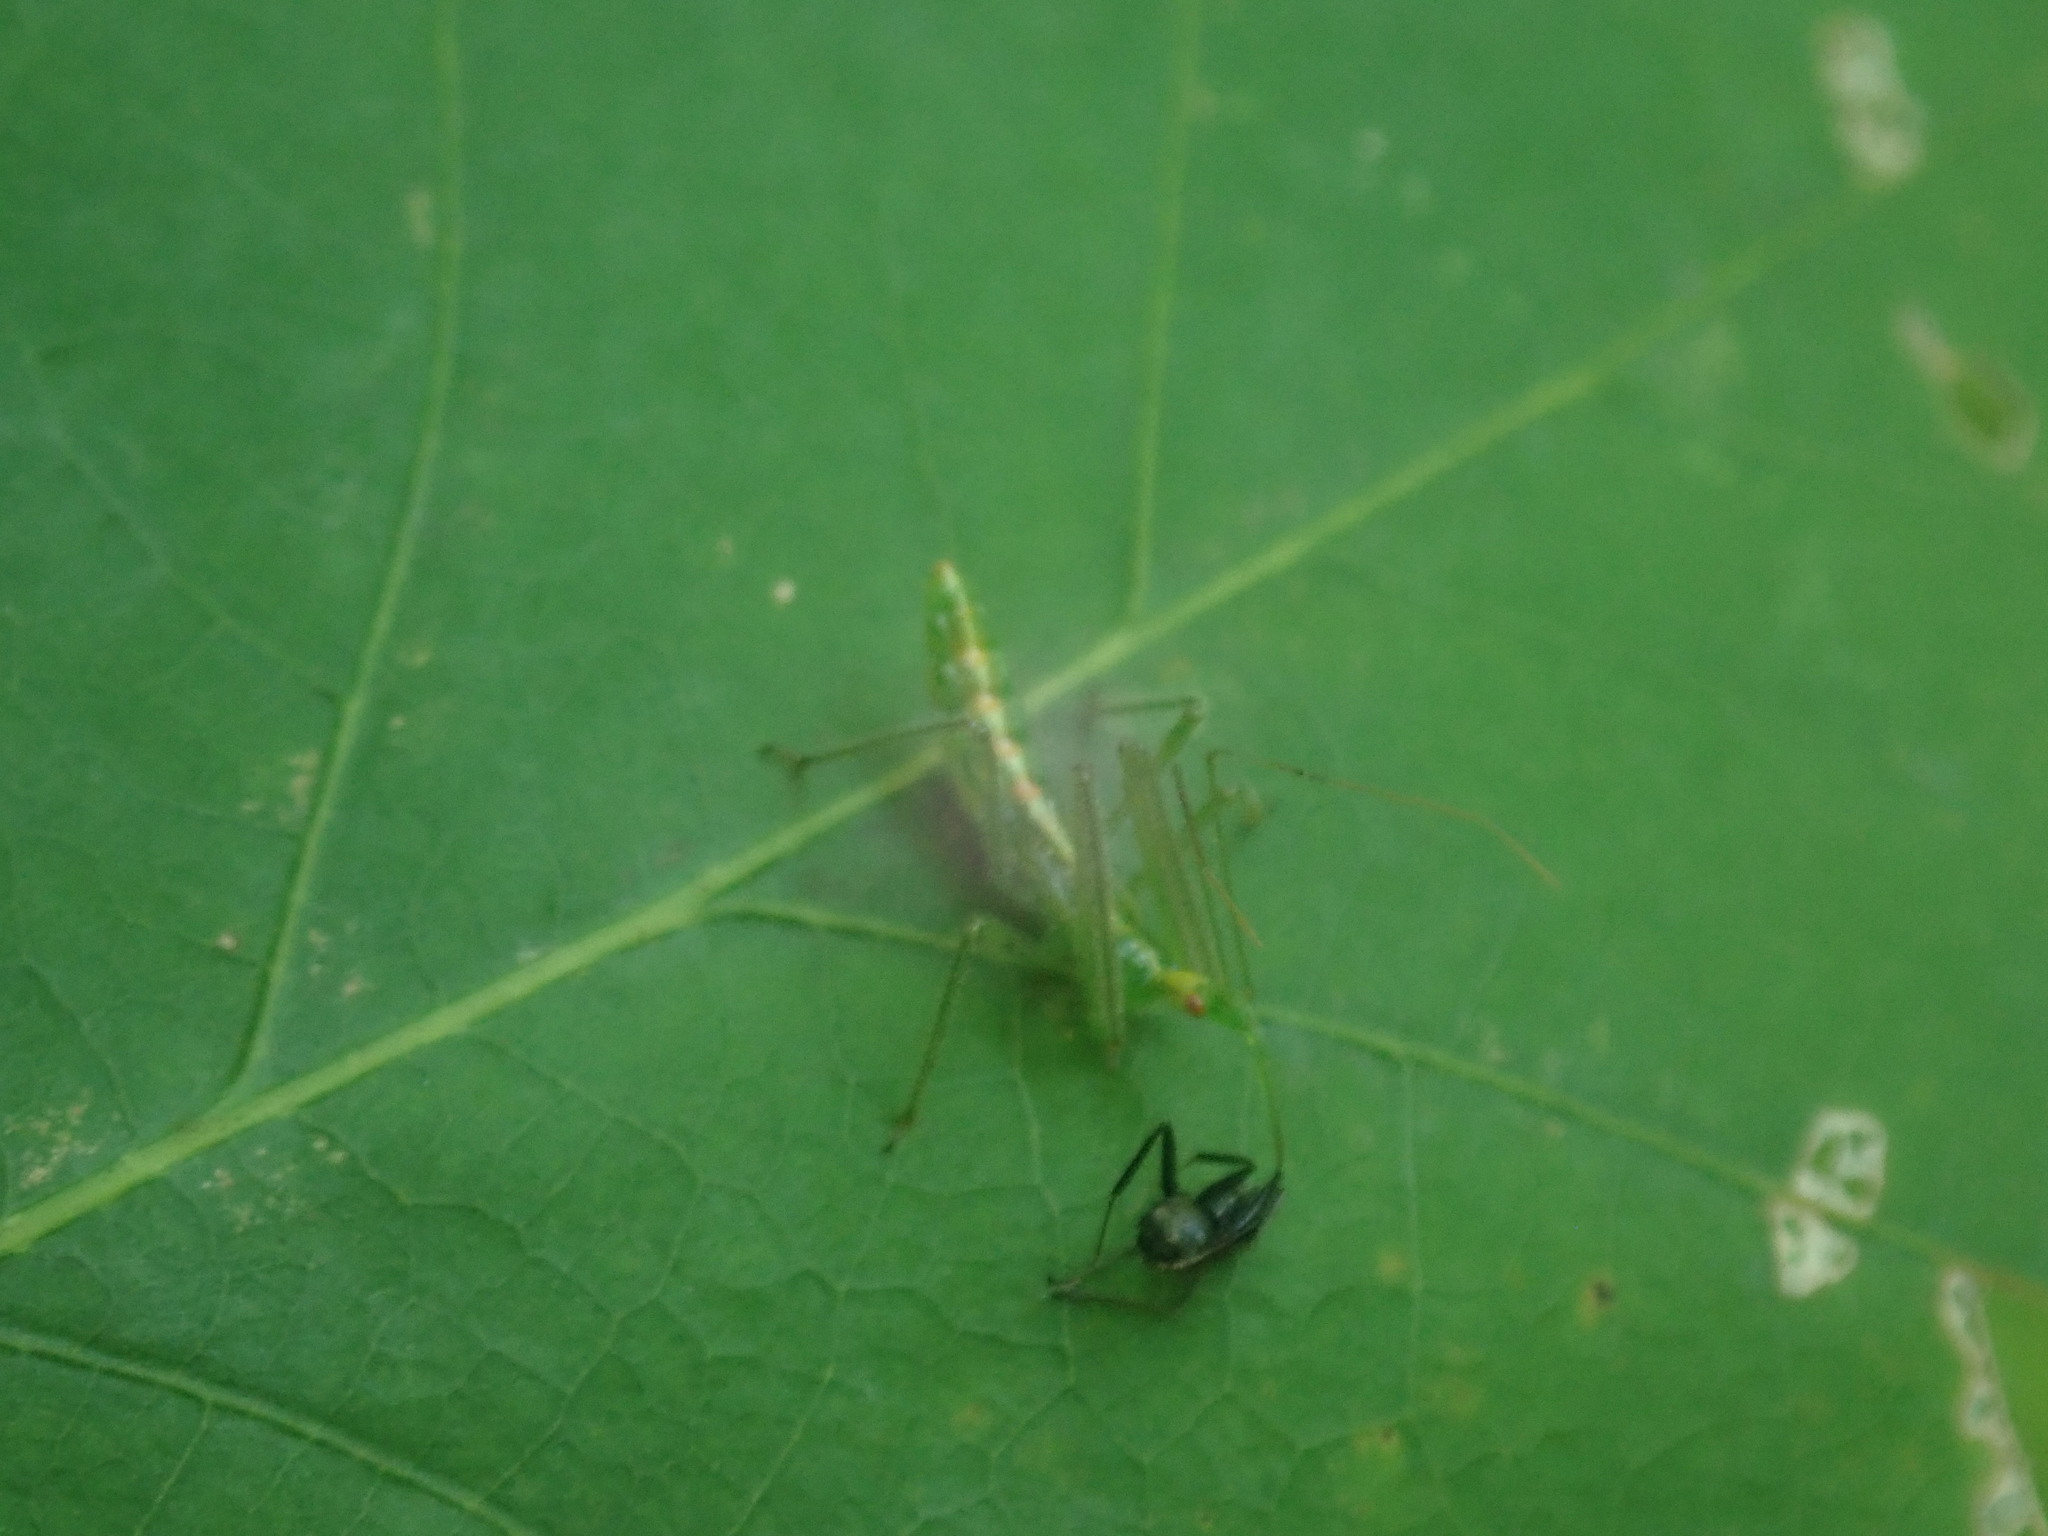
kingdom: Animalia
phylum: Arthropoda
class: Insecta
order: Hemiptera
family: Reduviidae
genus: Zelus
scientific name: Zelus luridus
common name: Pale green assassin bug
